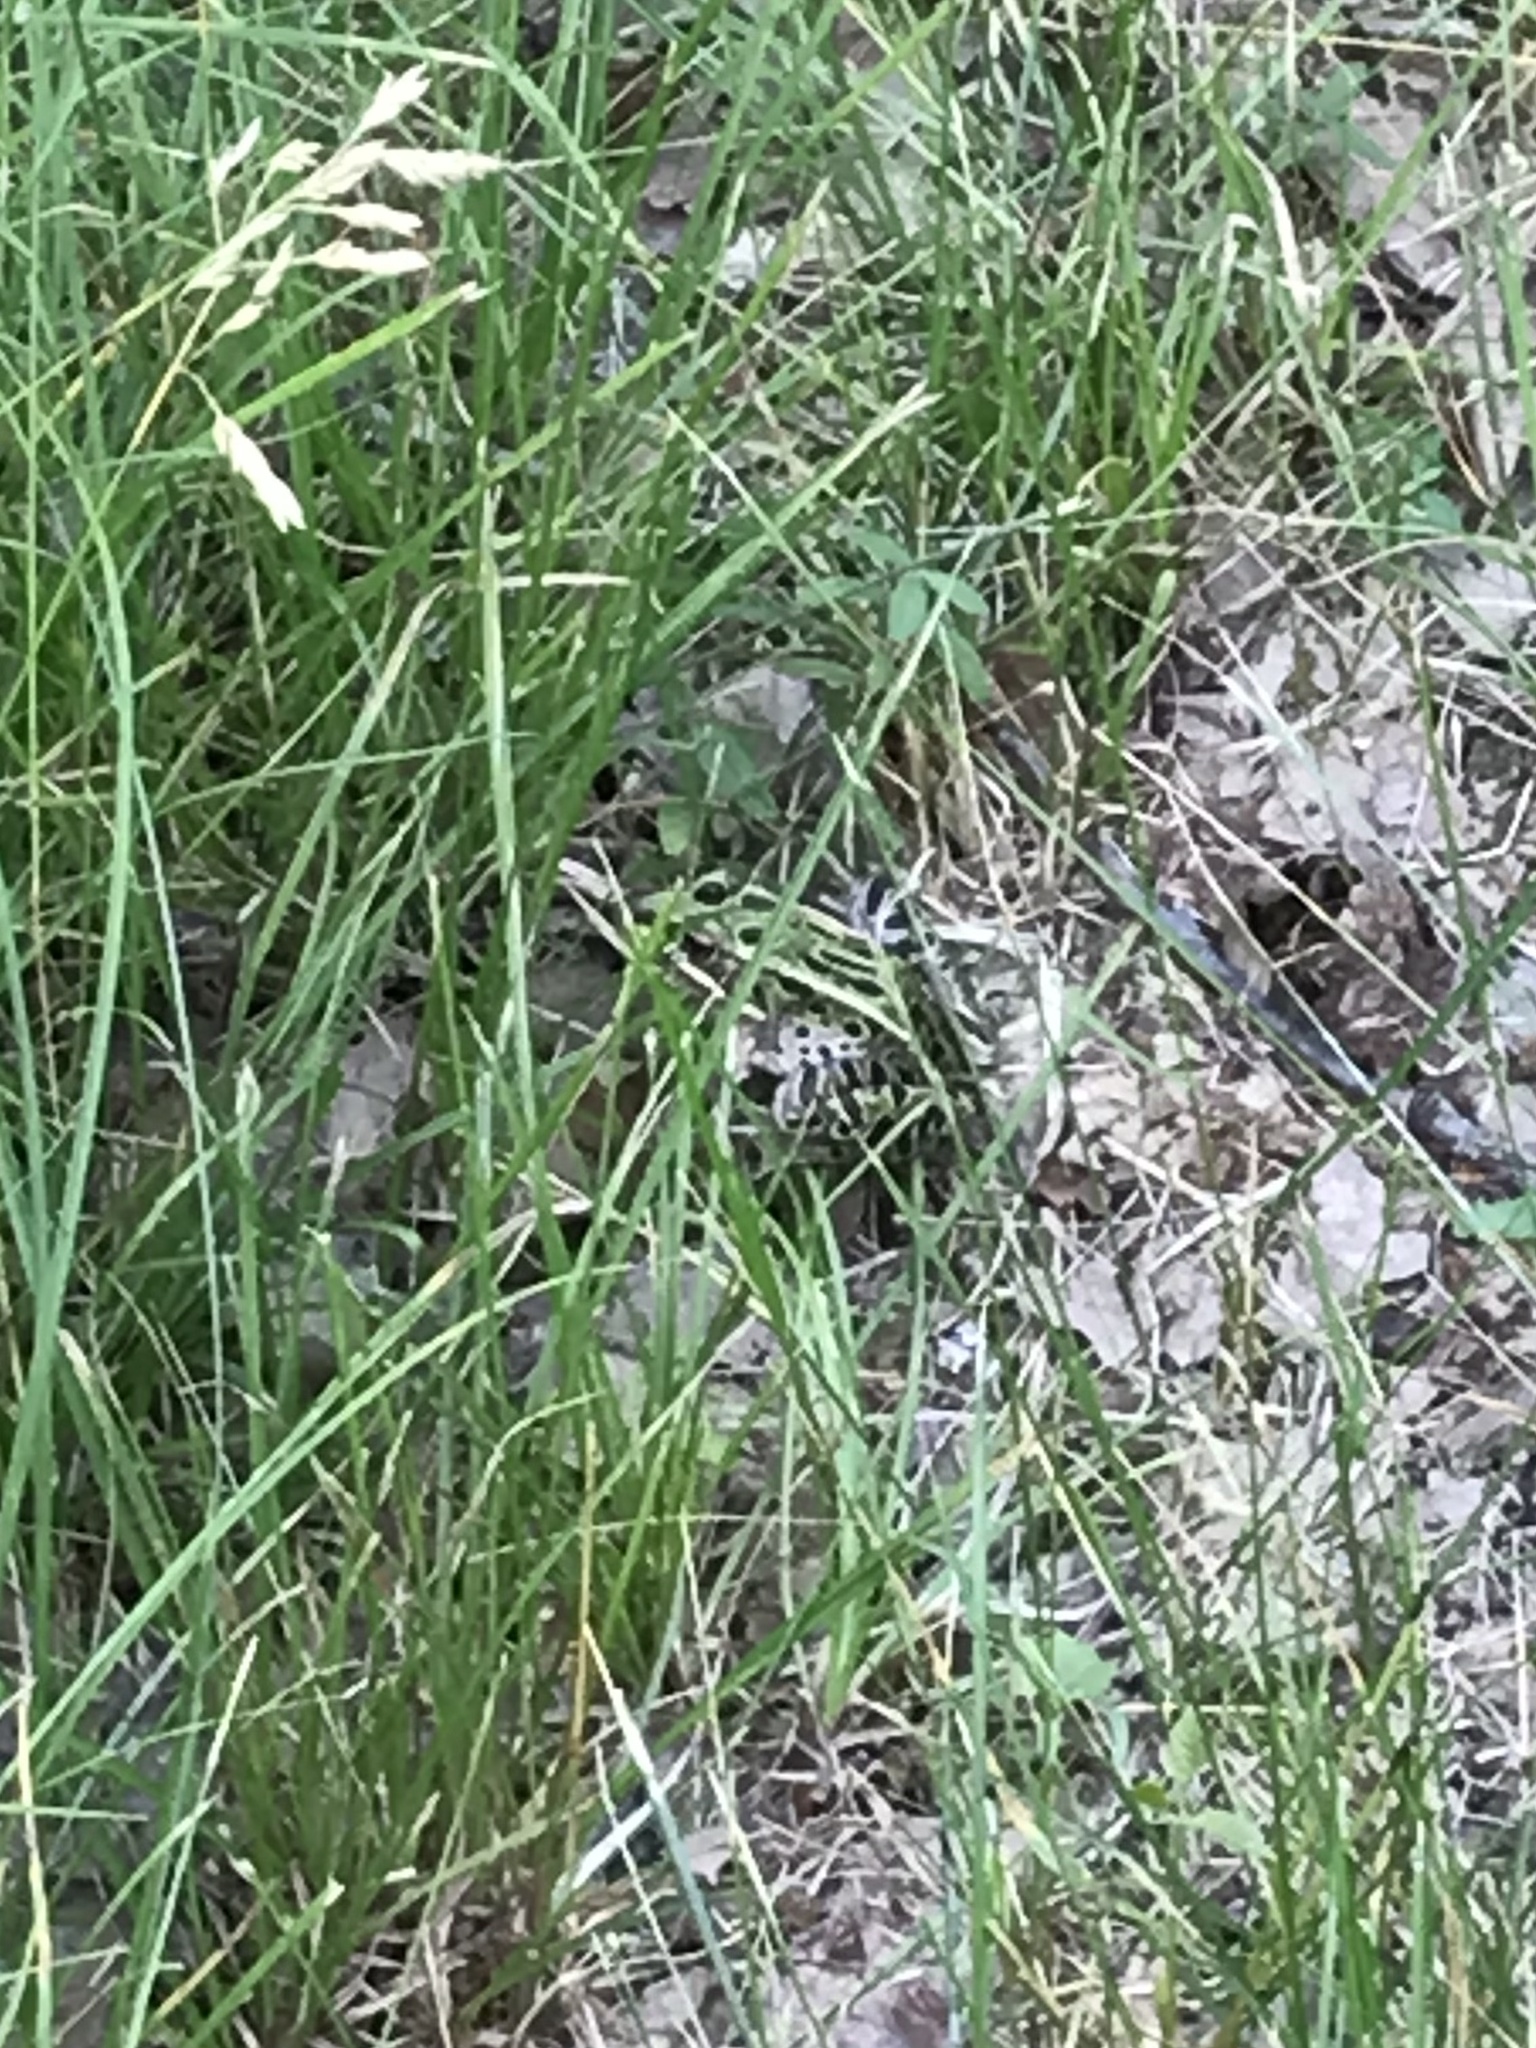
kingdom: Animalia
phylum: Chordata
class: Amphibia
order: Anura
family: Ranidae
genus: Lithobates
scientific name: Lithobates pipiens
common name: Northern leopard frog
